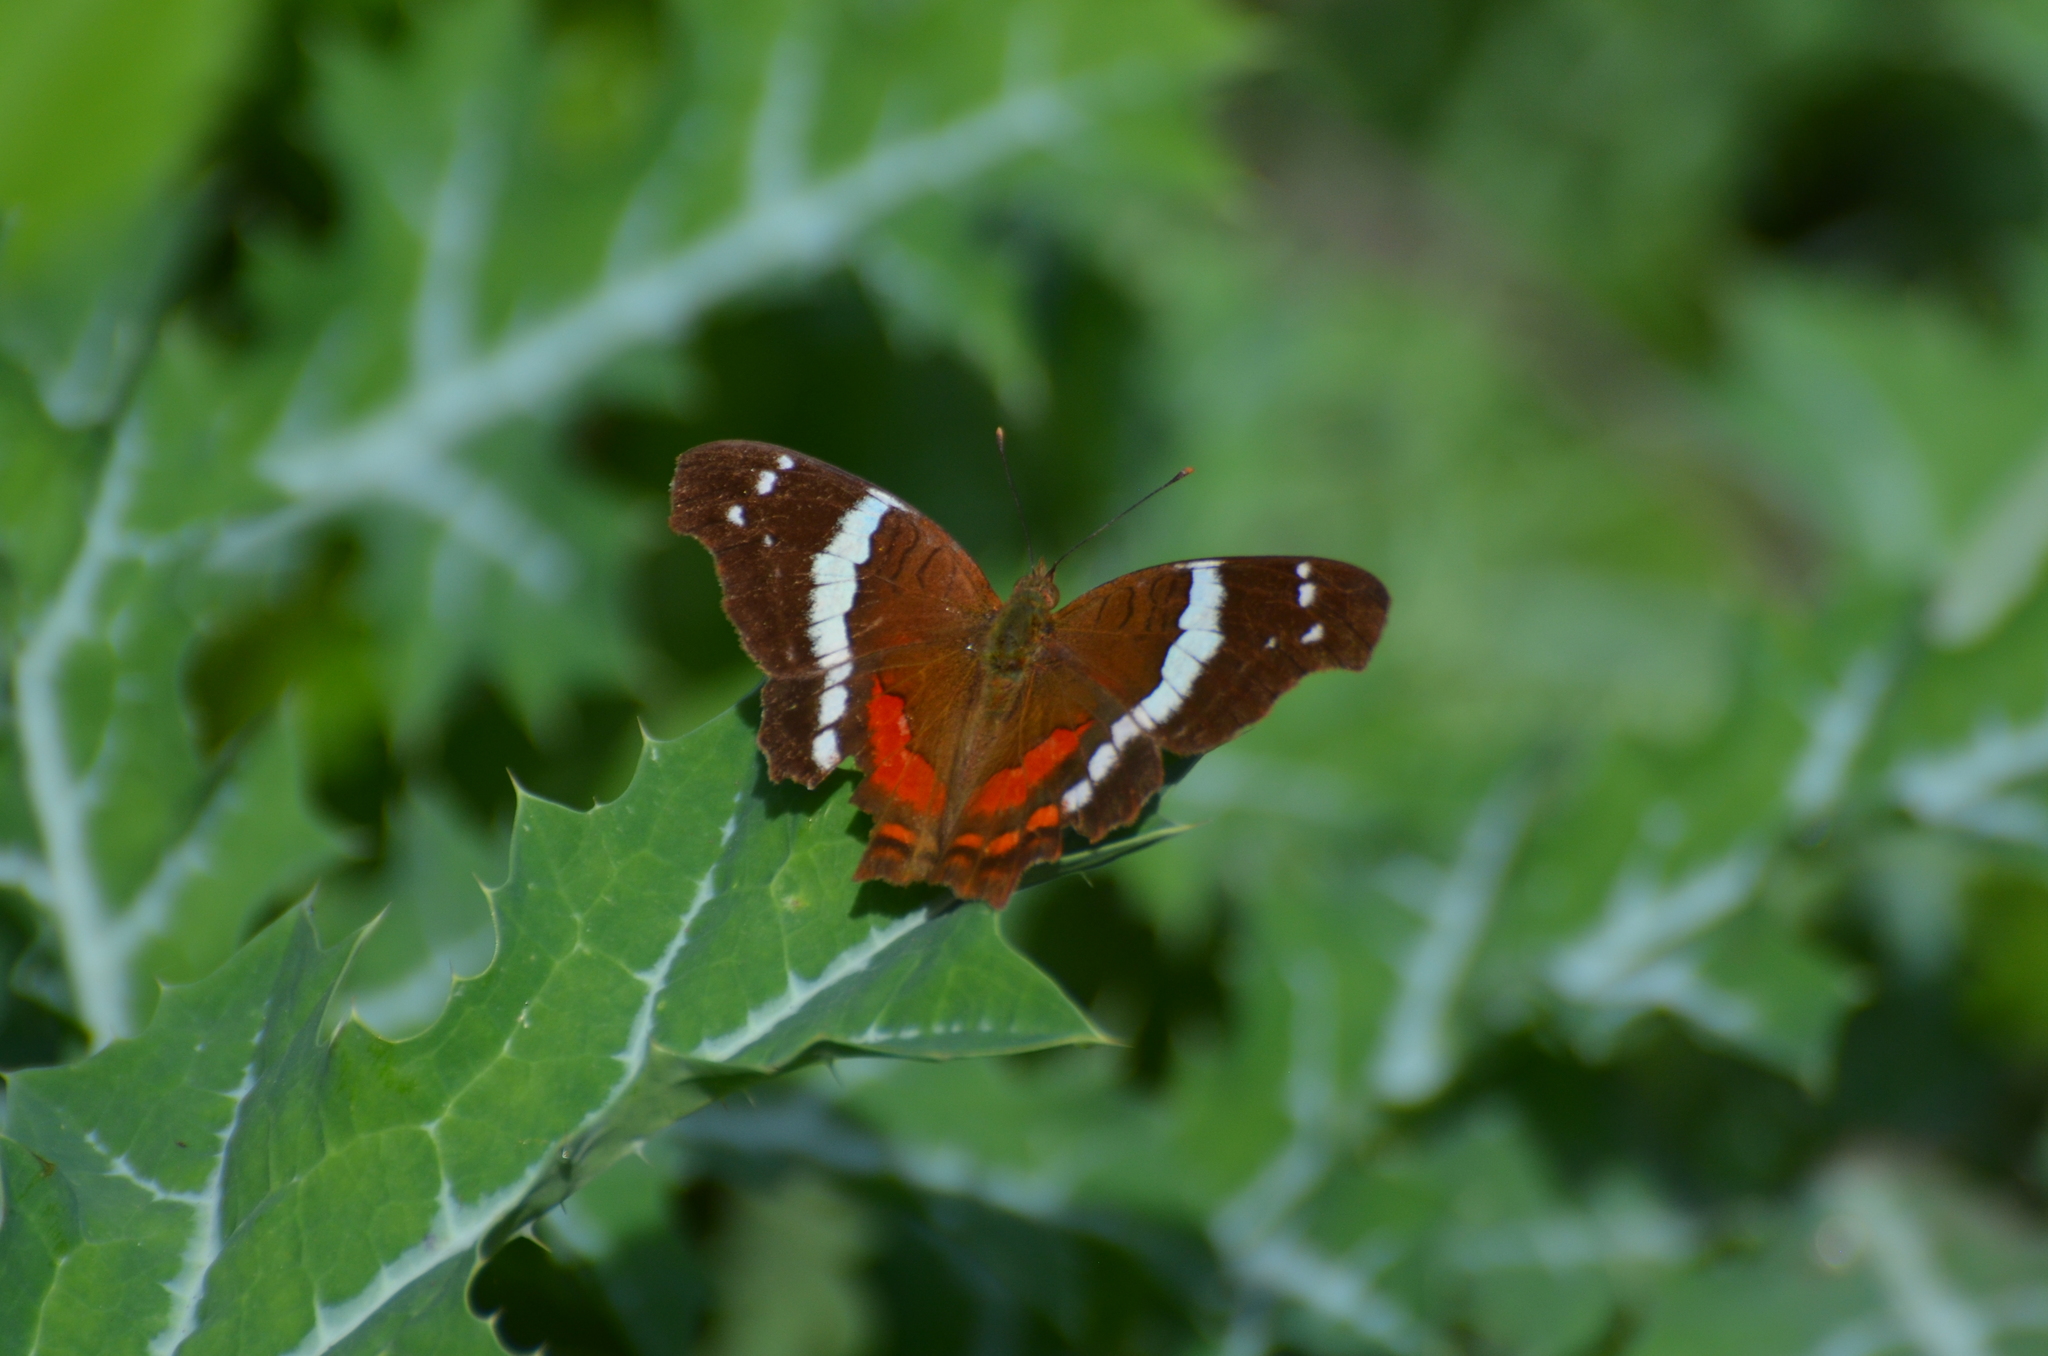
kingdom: Animalia
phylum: Arthropoda
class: Insecta
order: Lepidoptera
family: Nymphalidae
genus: Anartia
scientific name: Anartia fatima
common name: Banded peacock
